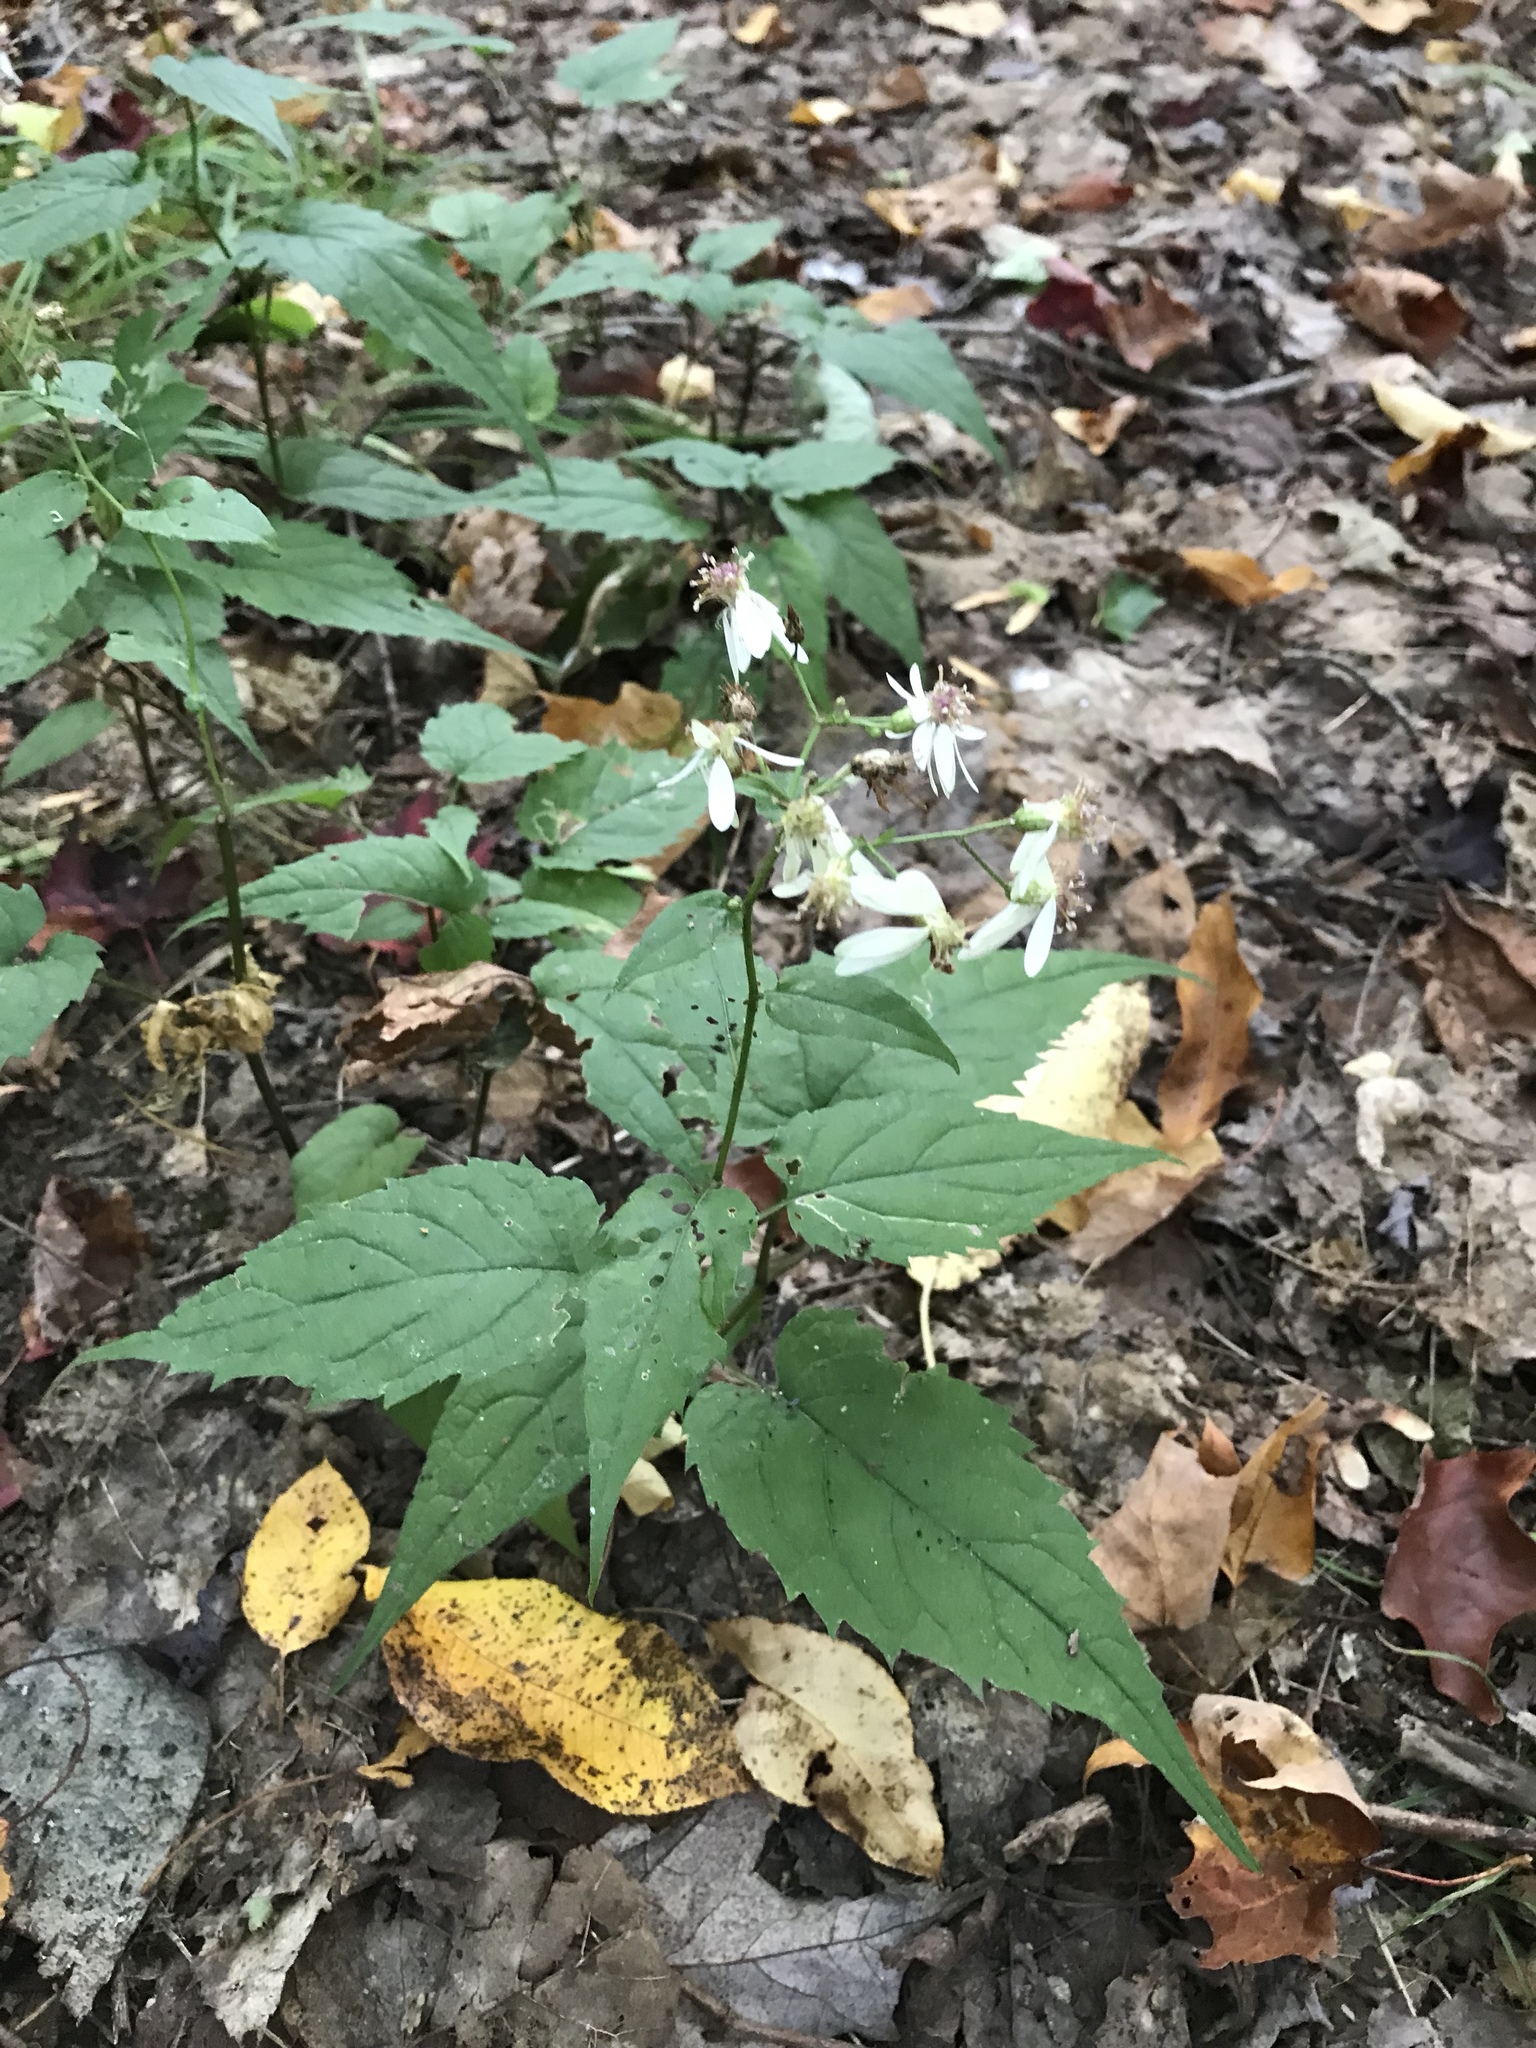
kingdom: Plantae
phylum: Tracheophyta
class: Magnoliopsida
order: Asterales
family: Asteraceae
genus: Oclemena
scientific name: Oclemena acuminata
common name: Mountain aster
